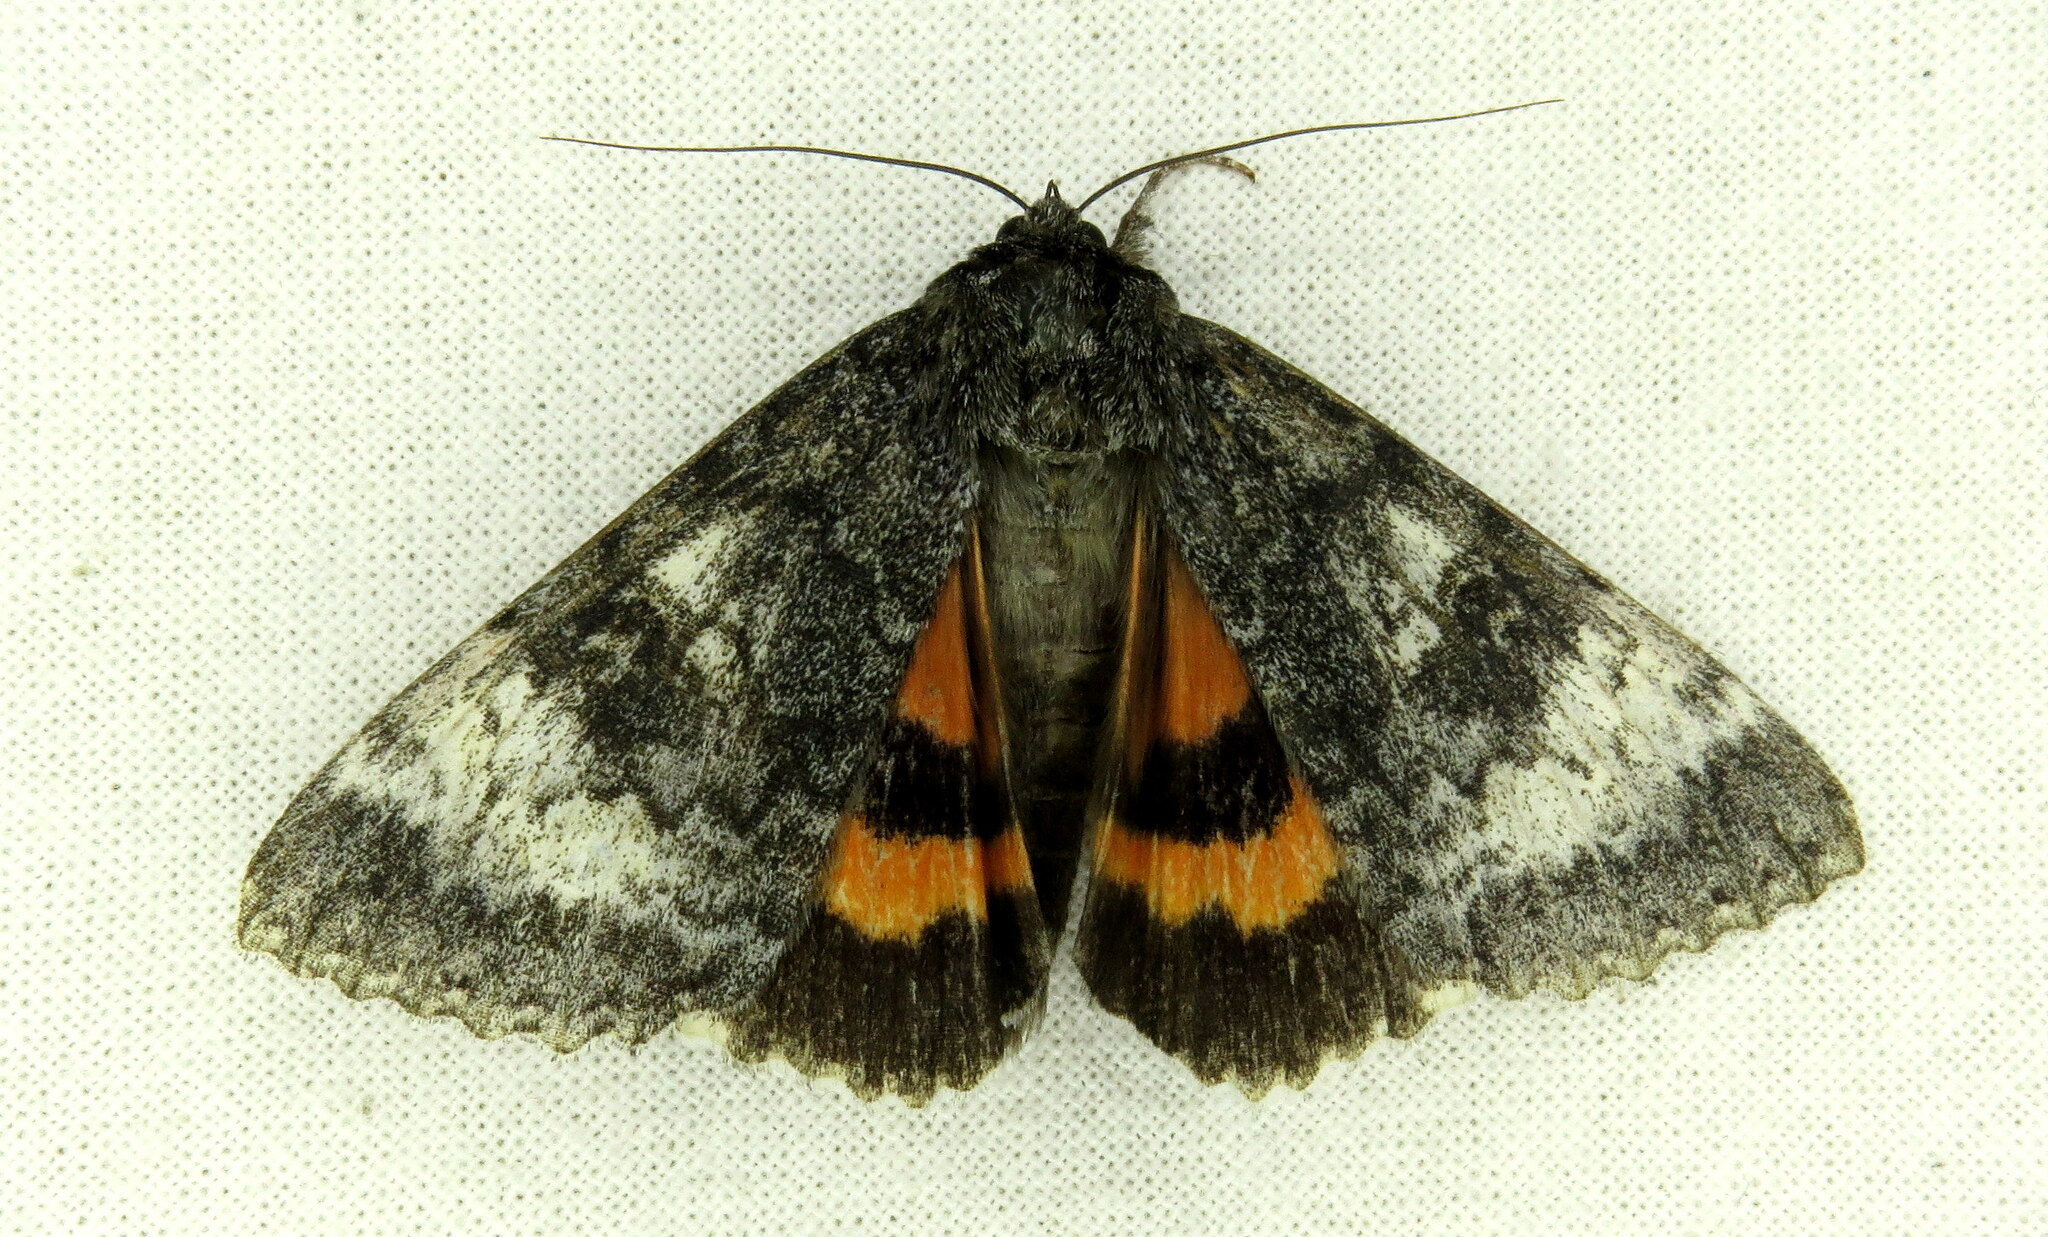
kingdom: Animalia
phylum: Arthropoda
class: Insecta
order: Lepidoptera
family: Erebidae
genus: Catocala
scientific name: Catocala briseis
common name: Briseis underwing
